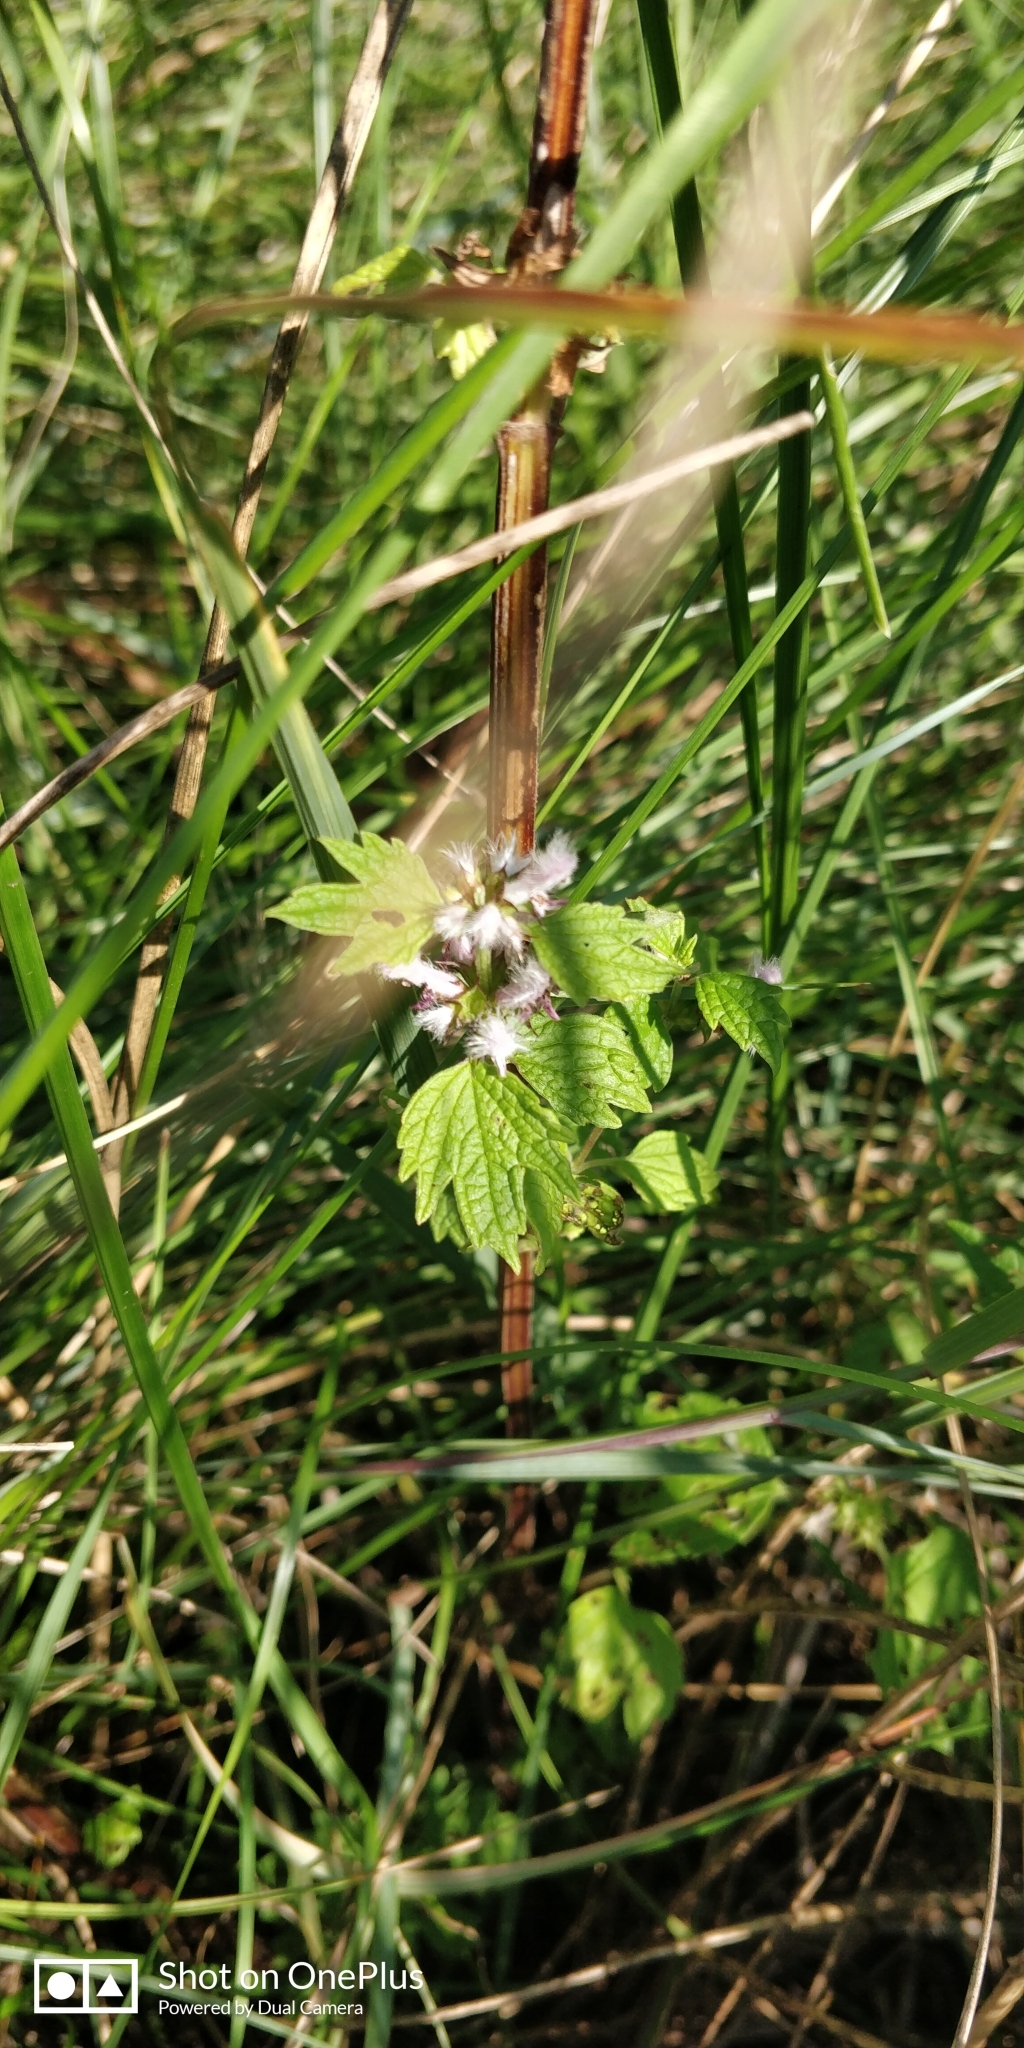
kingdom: Plantae
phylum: Tracheophyta
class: Magnoliopsida
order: Lamiales
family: Lamiaceae
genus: Leonurus
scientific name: Leonurus cardiaca
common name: Motherwort
